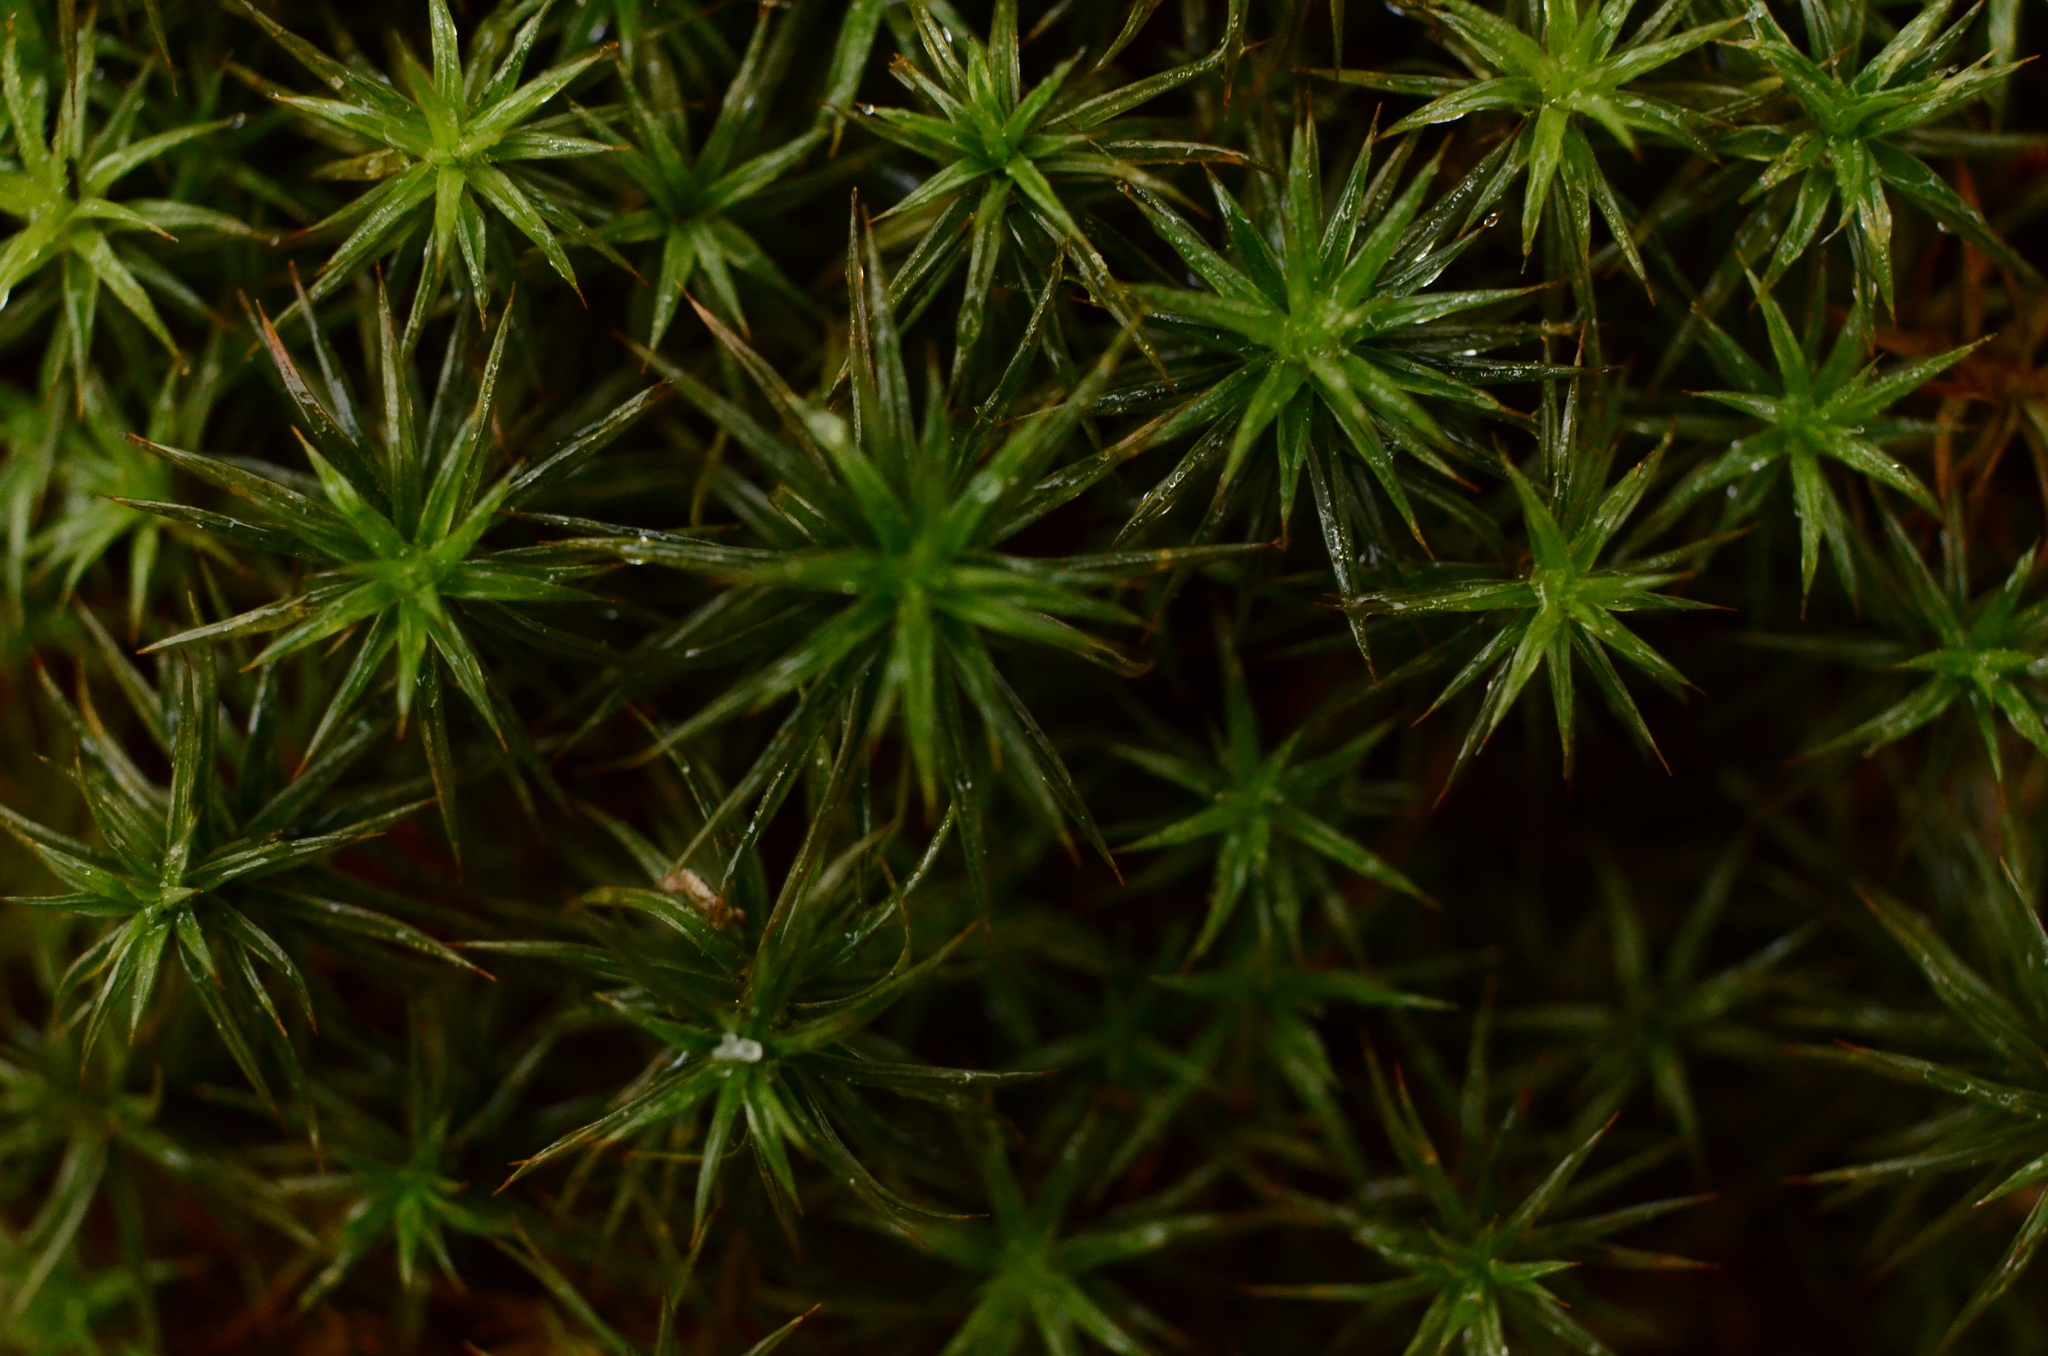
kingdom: Plantae
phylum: Bryophyta
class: Polytrichopsida
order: Polytrichales
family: Polytrichaceae
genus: Polytrichum
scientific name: Polytrichum juniperinum
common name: Juniper haircap moss
